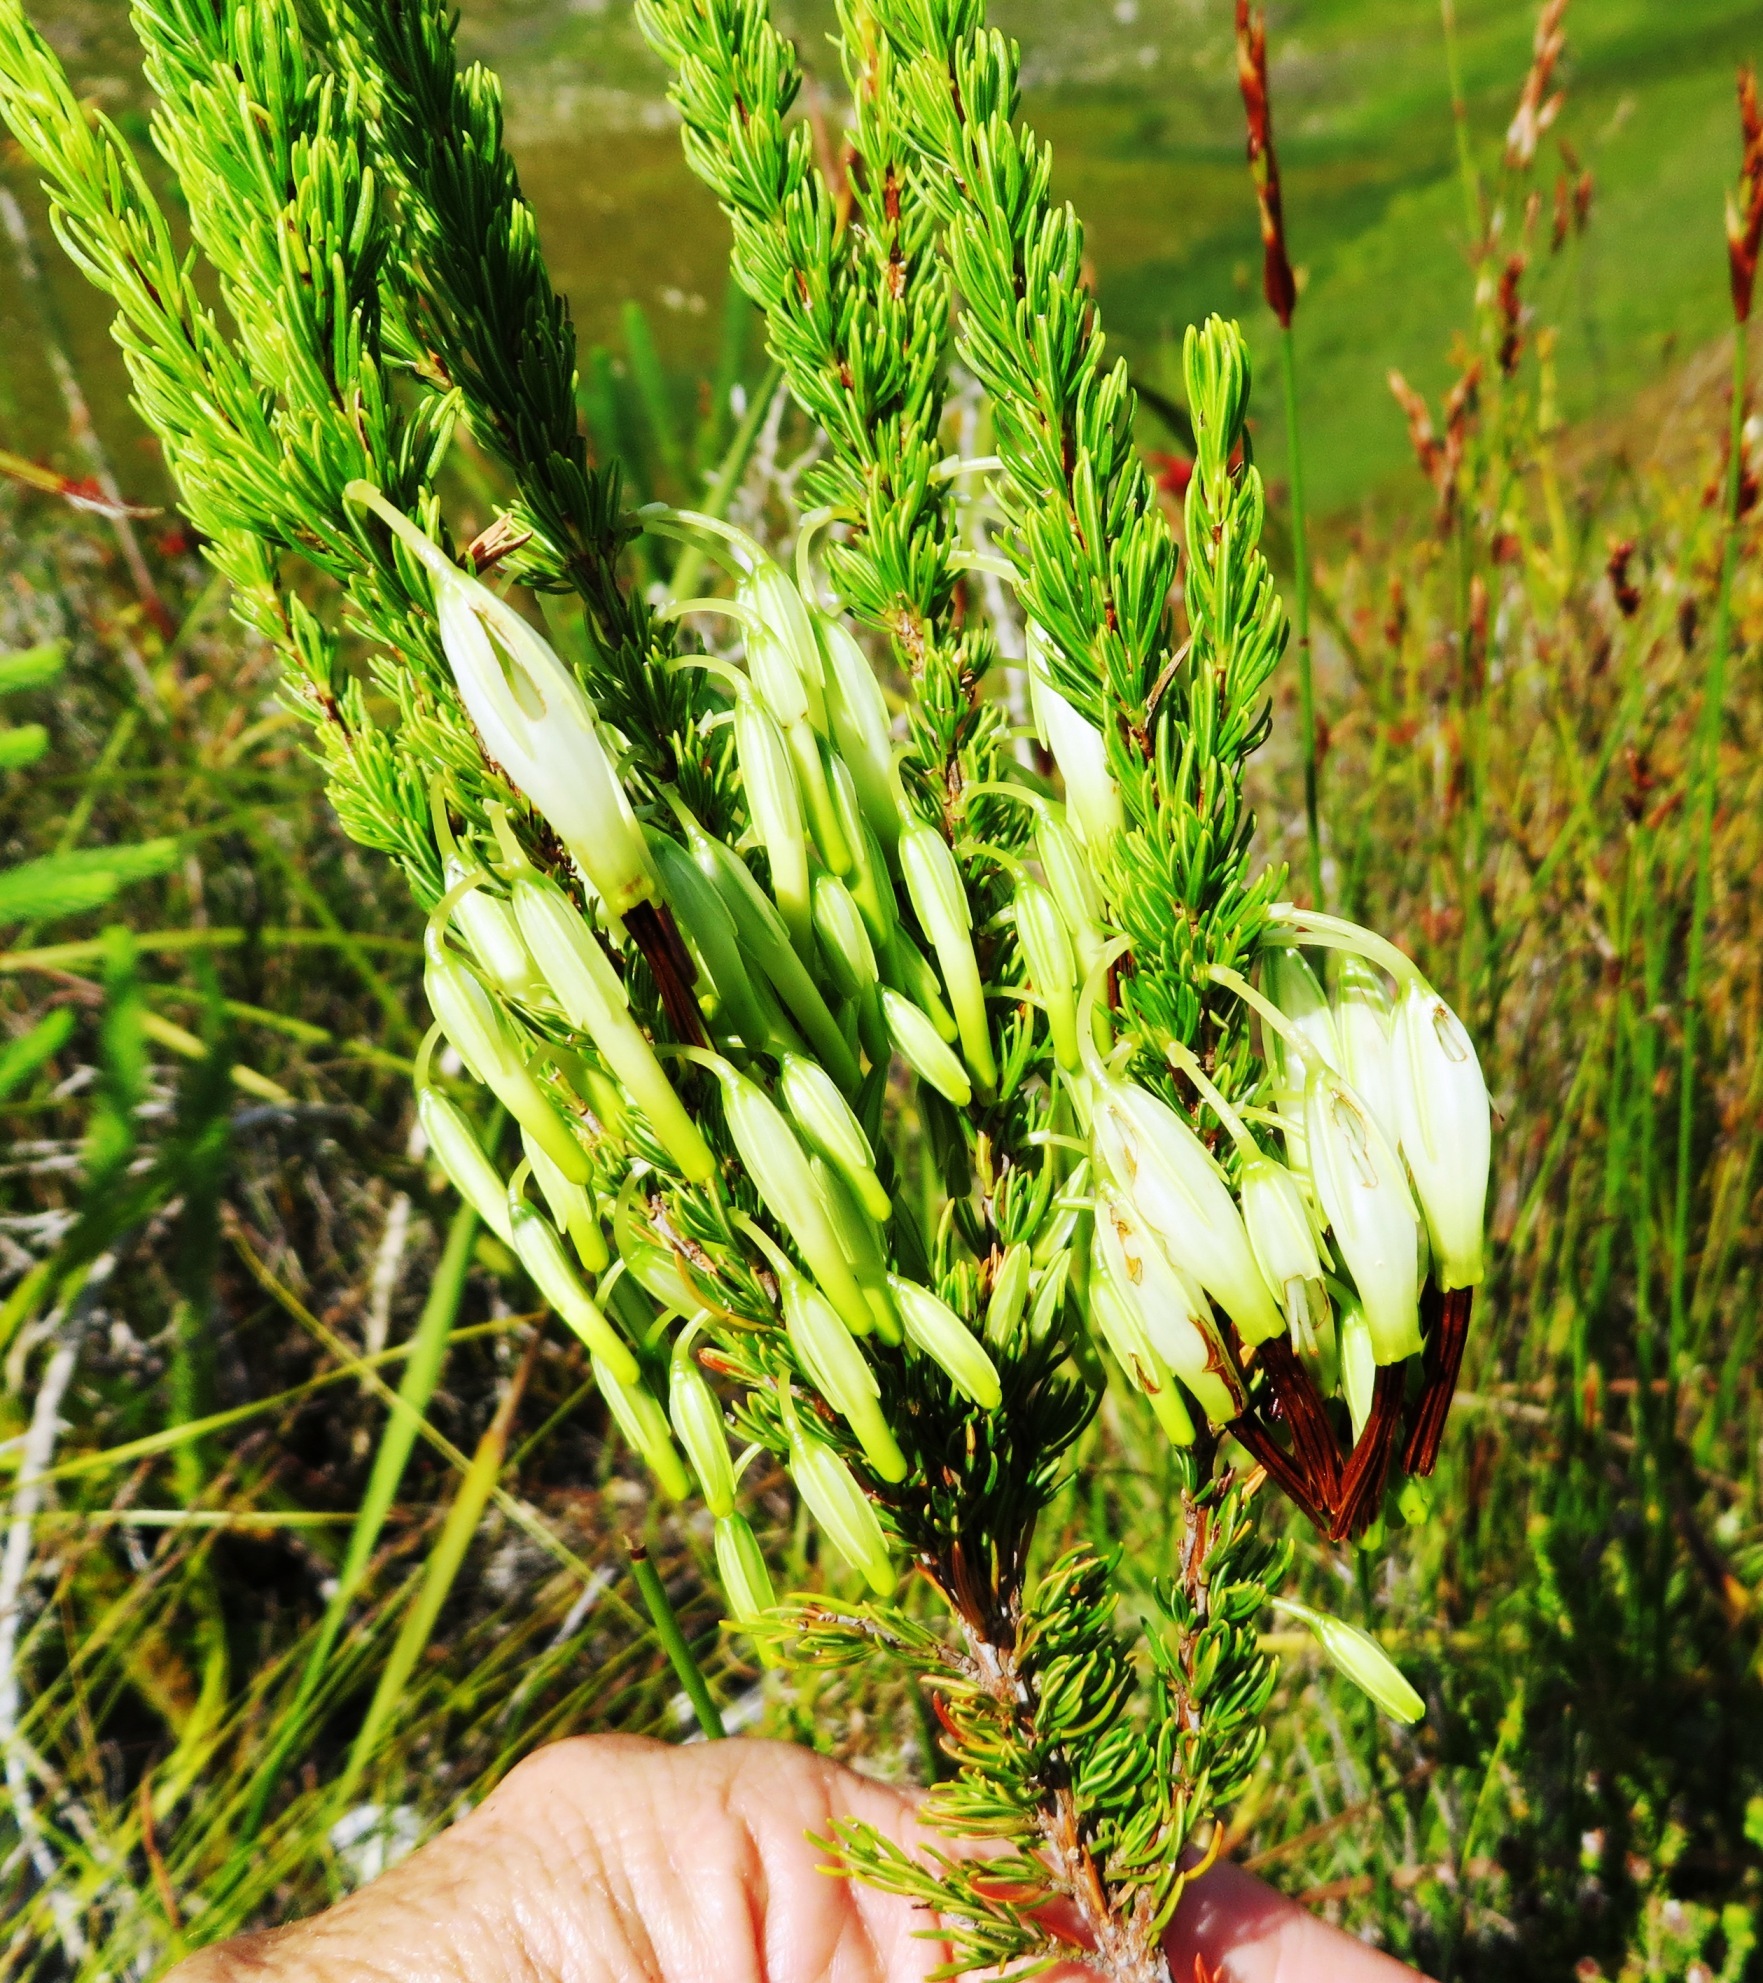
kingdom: Plantae
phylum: Tracheophyta
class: Magnoliopsida
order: Ericales
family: Ericaceae
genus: Erica
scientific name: Erica plukenetii
